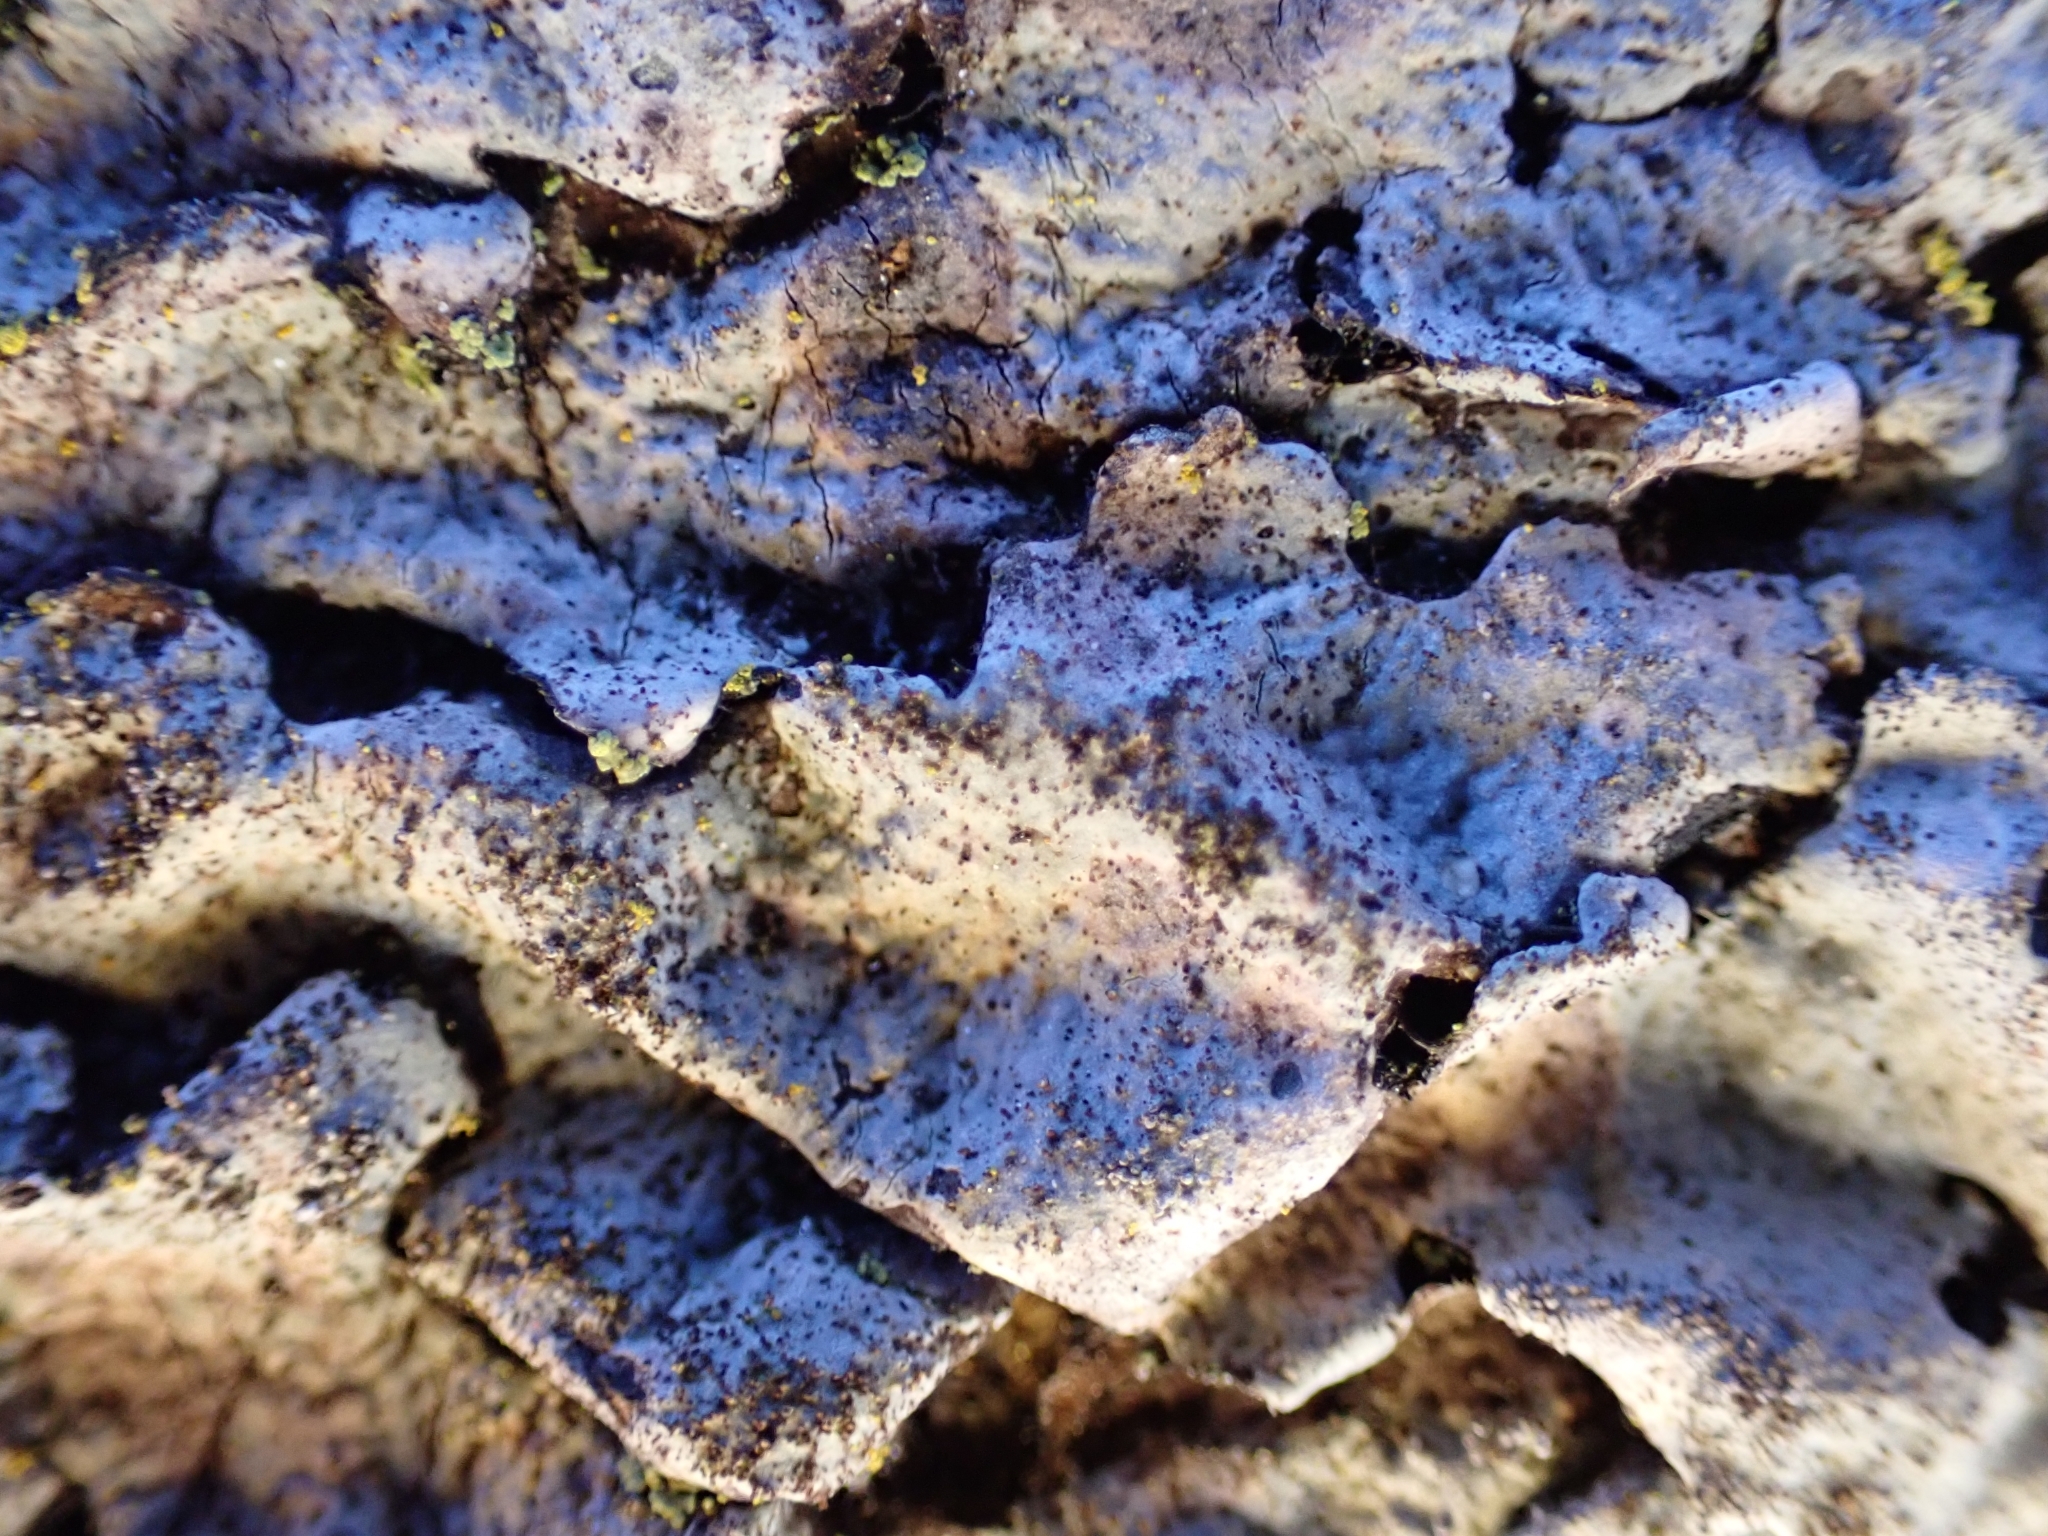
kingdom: Fungi
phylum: Ascomycota
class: Lecanoromycetes
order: Lecanorales
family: Parmeliaceae
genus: Parmelina
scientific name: Parmelina tiliacea
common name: Linden shield lichen
